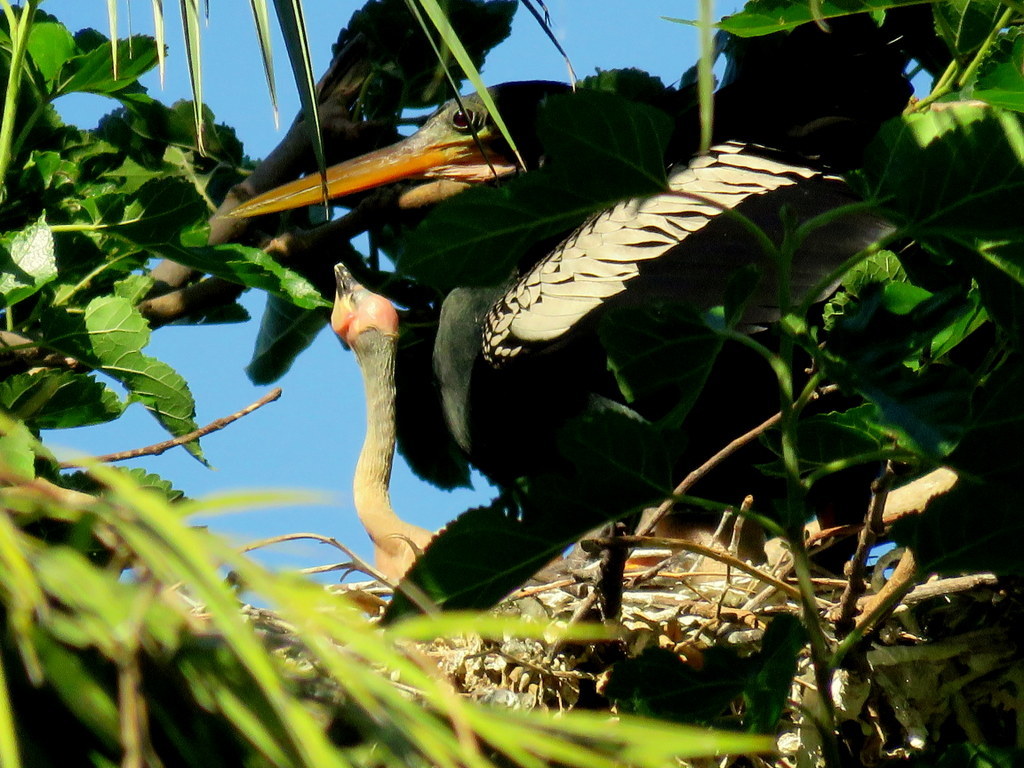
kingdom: Animalia
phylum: Chordata
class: Aves
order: Suliformes
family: Anhingidae
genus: Anhinga
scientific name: Anhinga anhinga
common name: Anhinga
